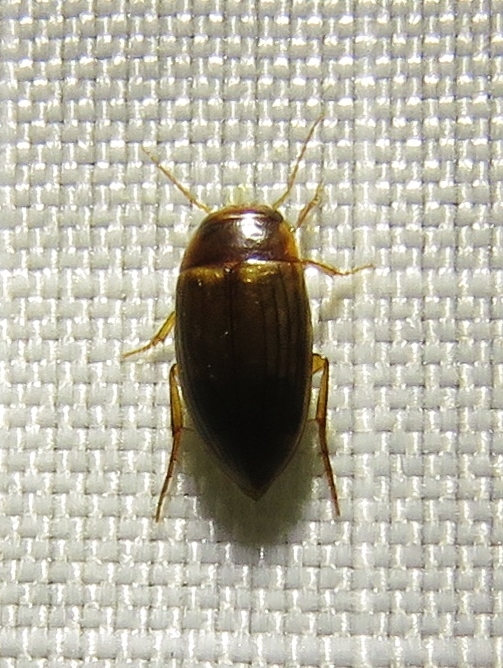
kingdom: Animalia
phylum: Arthropoda
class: Insecta
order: Coleoptera
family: Dytiscidae
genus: Copelatus
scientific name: Copelatus debilis
